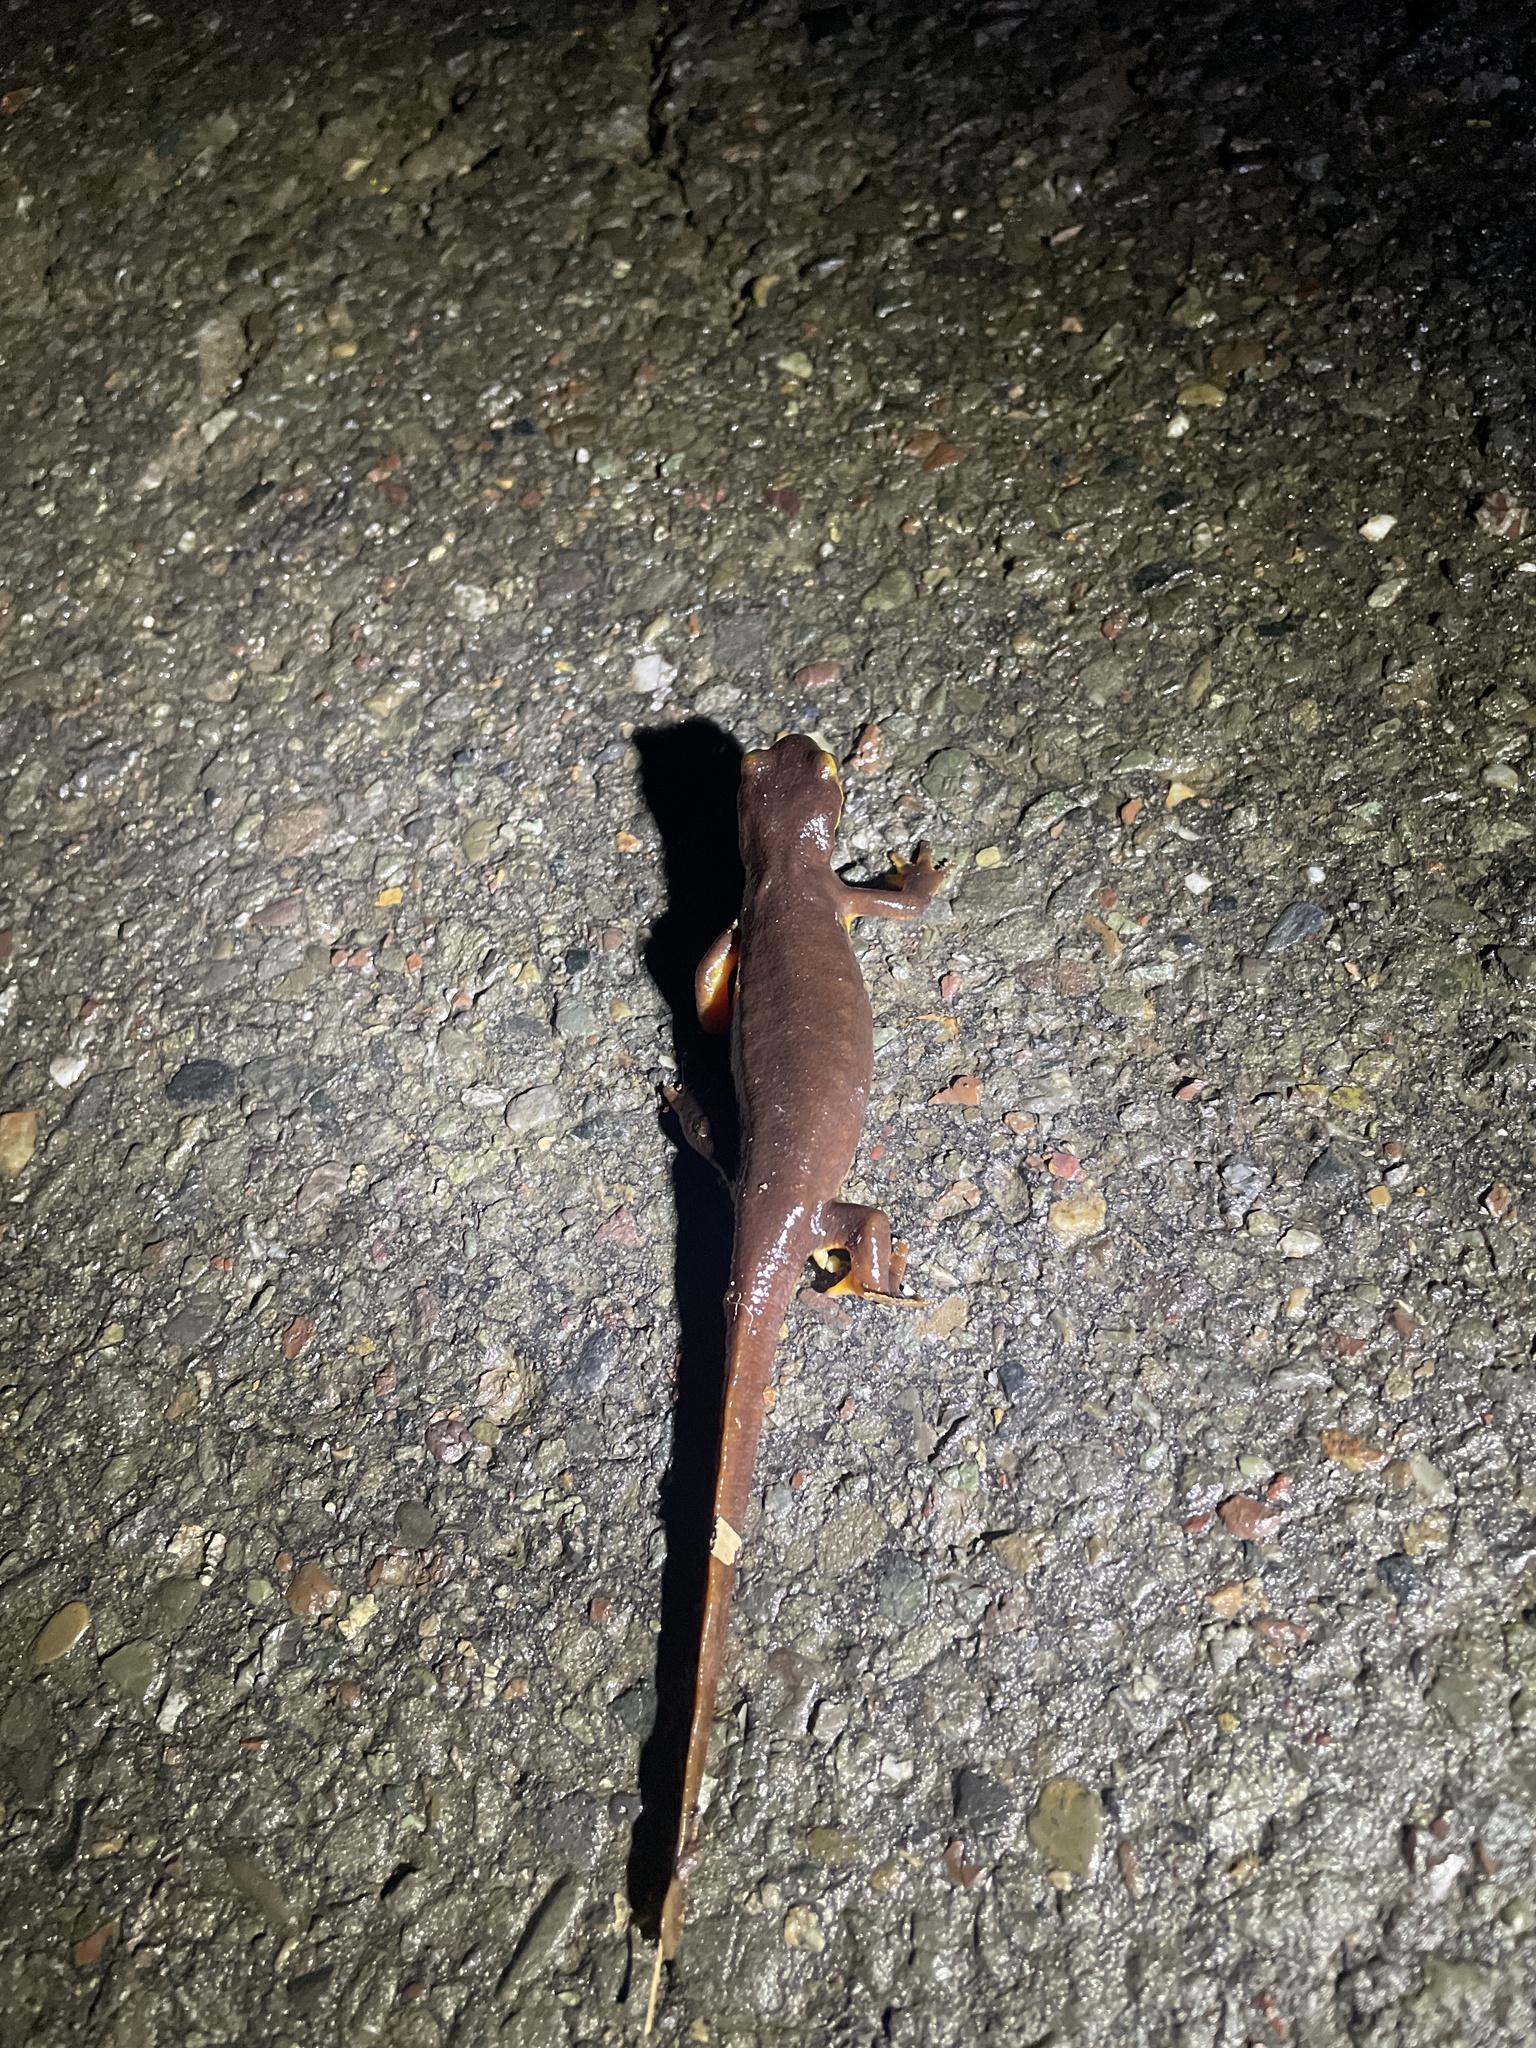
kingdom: Animalia
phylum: Chordata
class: Amphibia
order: Caudata
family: Salamandridae
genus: Taricha
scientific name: Taricha torosa
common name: California newt
